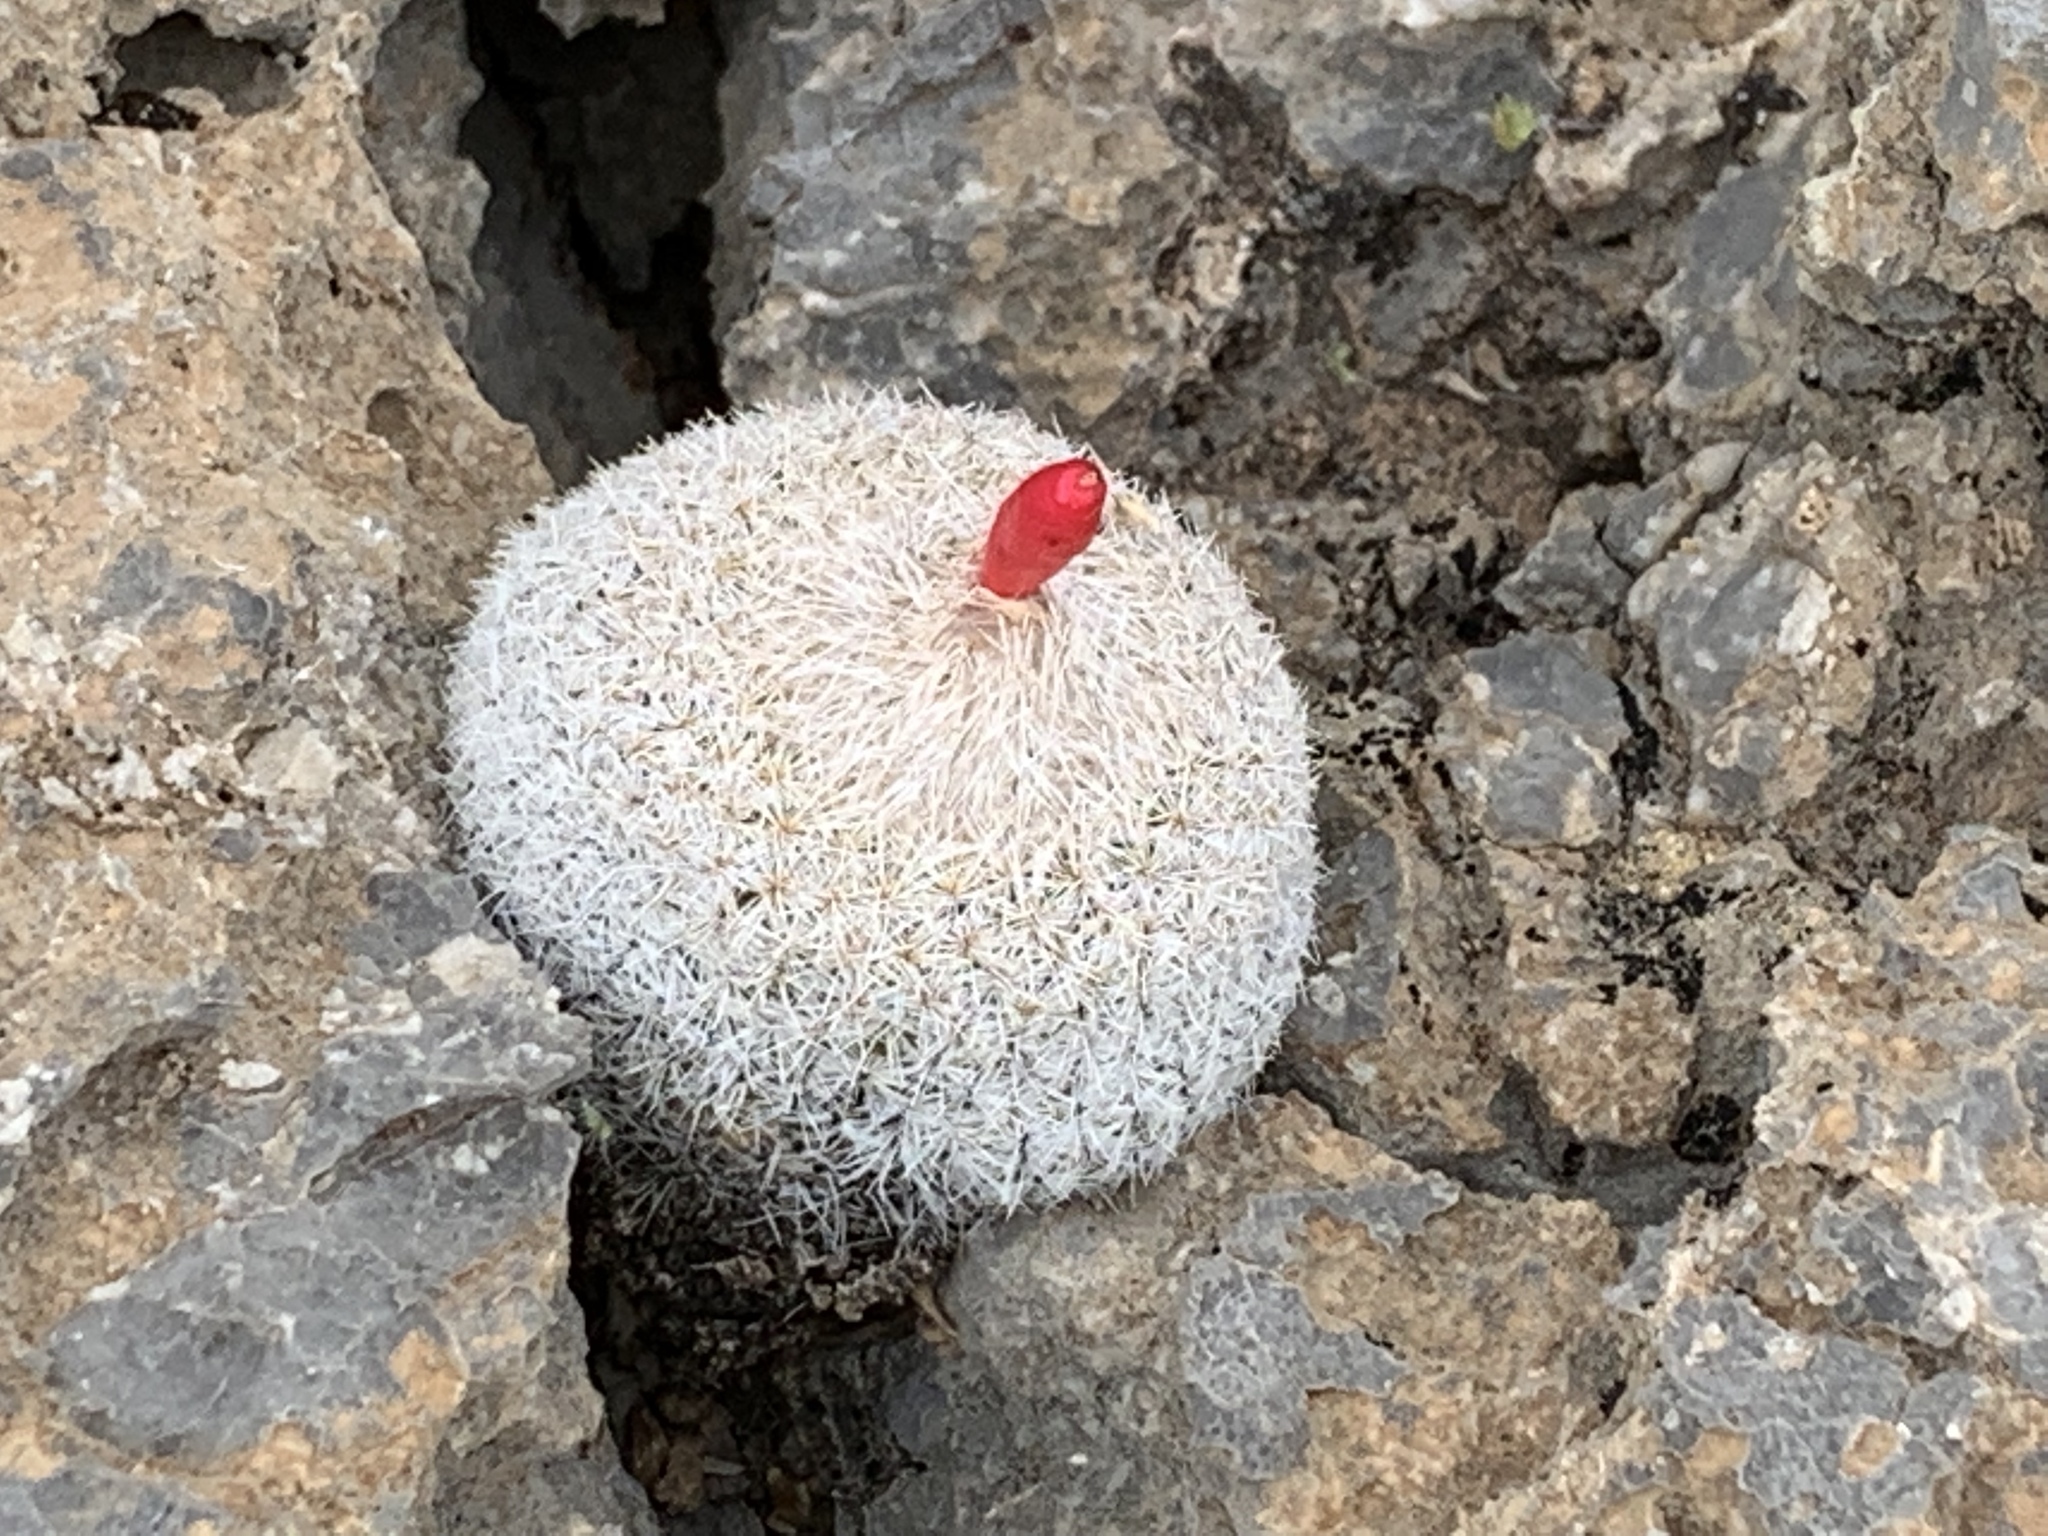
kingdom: Plantae
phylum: Tracheophyta
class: Magnoliopsida
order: Caryophyllales
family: Cactaceae
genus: Epithelantha
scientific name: Epithelantha micromeris
